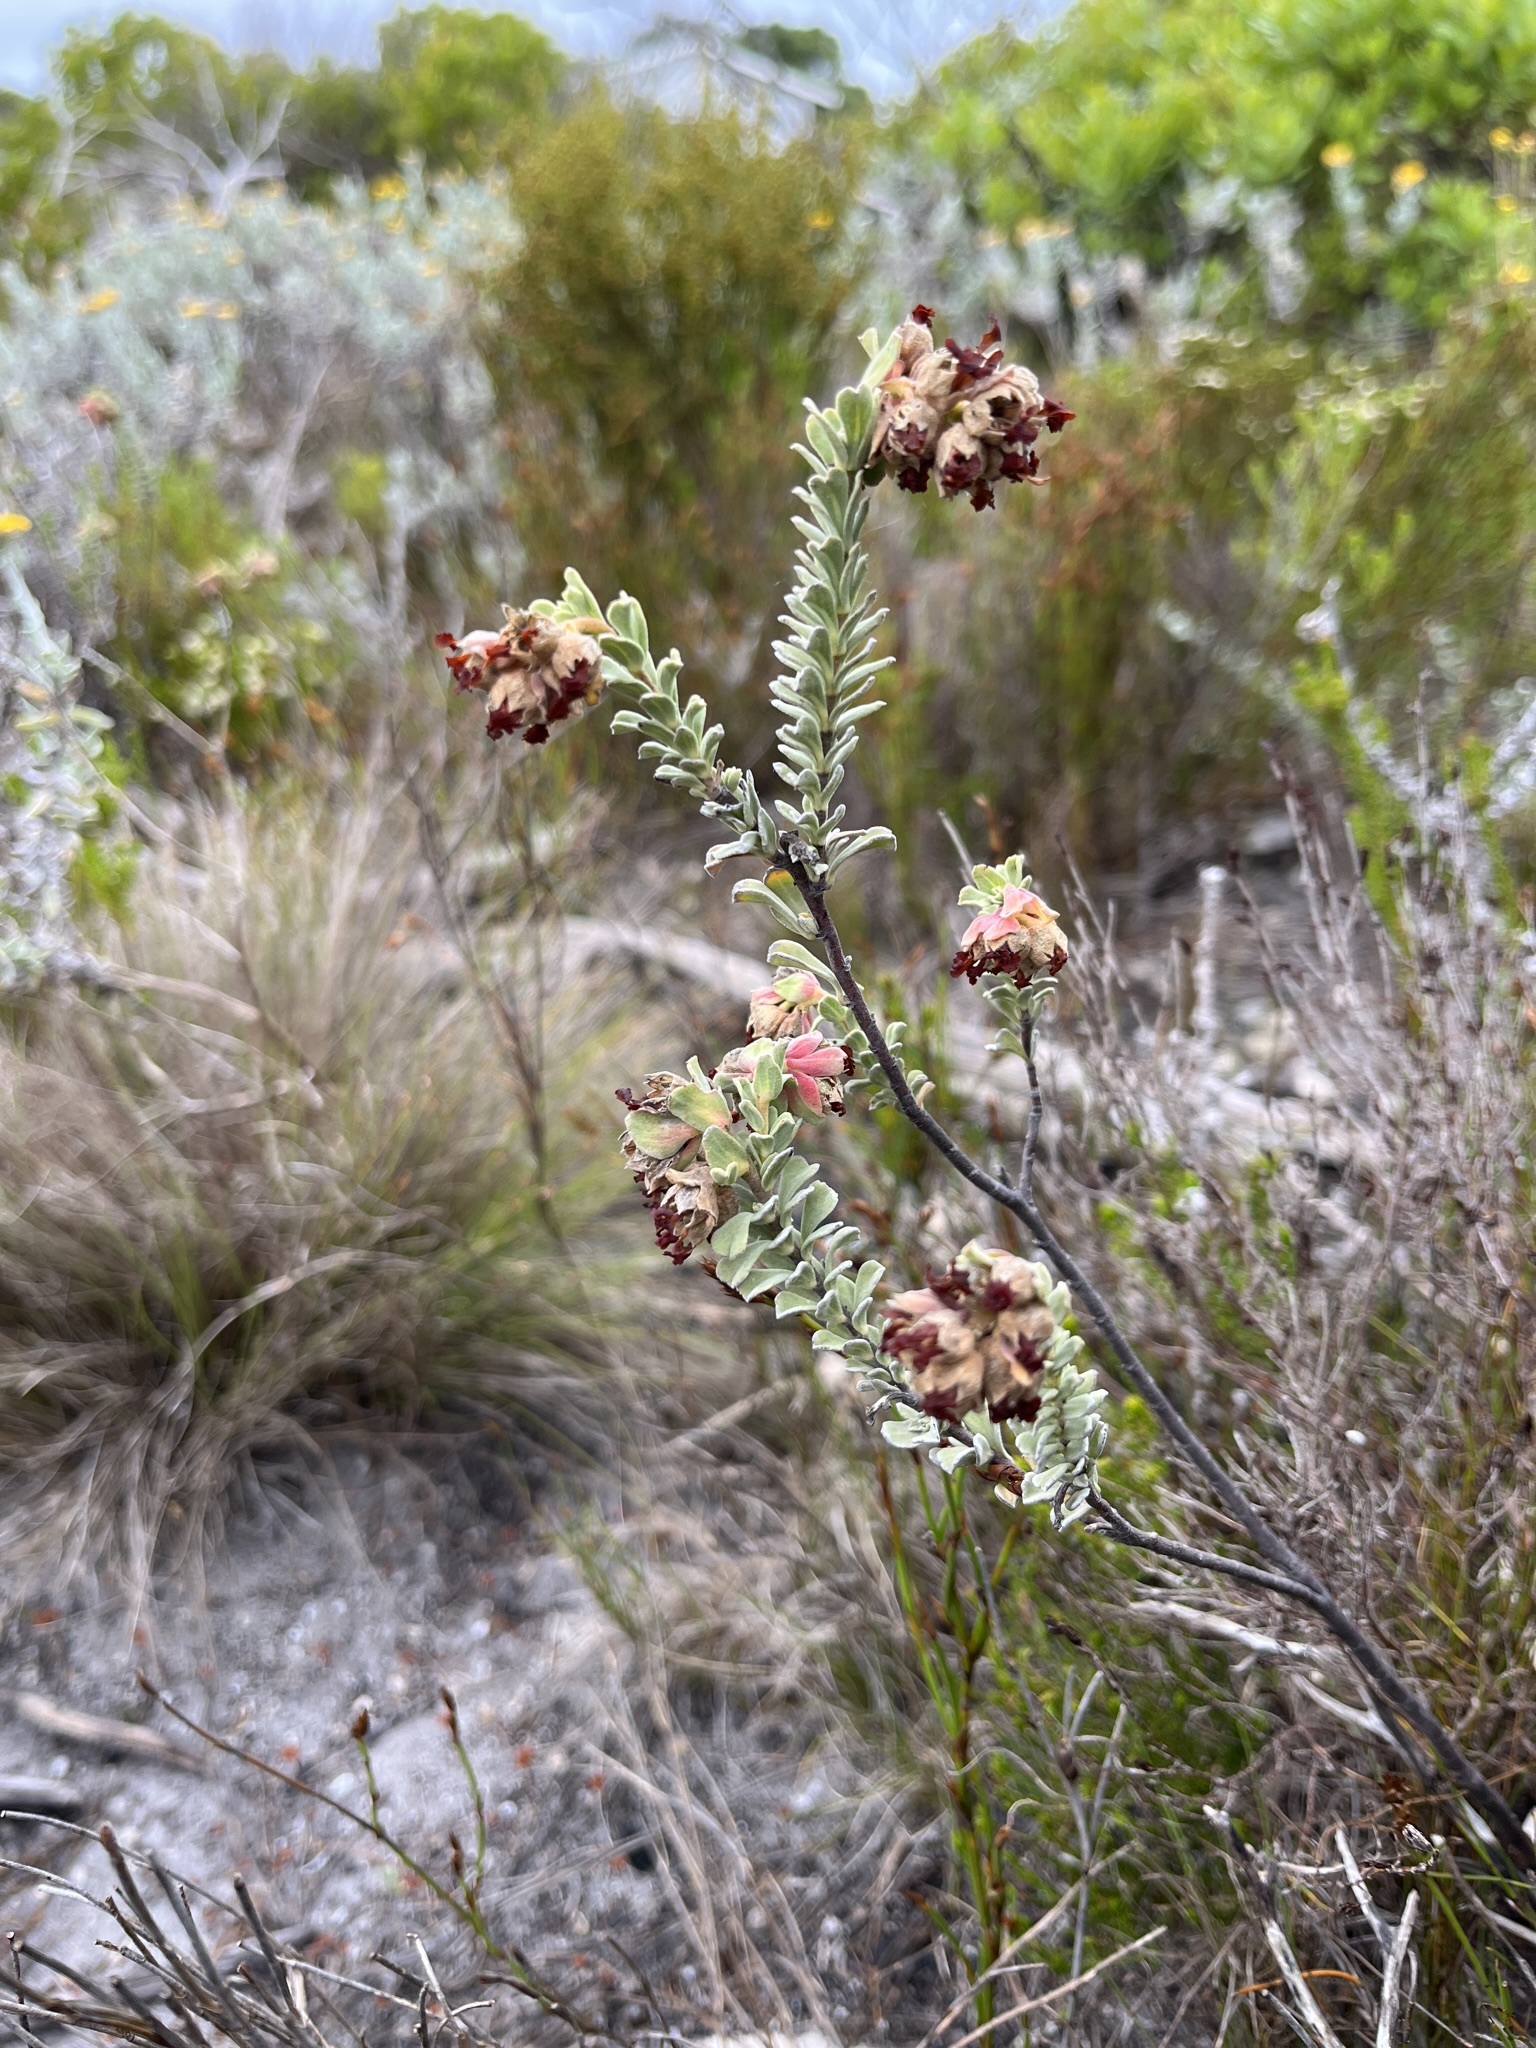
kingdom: Plantae
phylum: Tracheophyta
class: Magnoliopsida
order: Malvales
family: Malvaceae
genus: Hermannia
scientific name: Hermannia trifoliata
